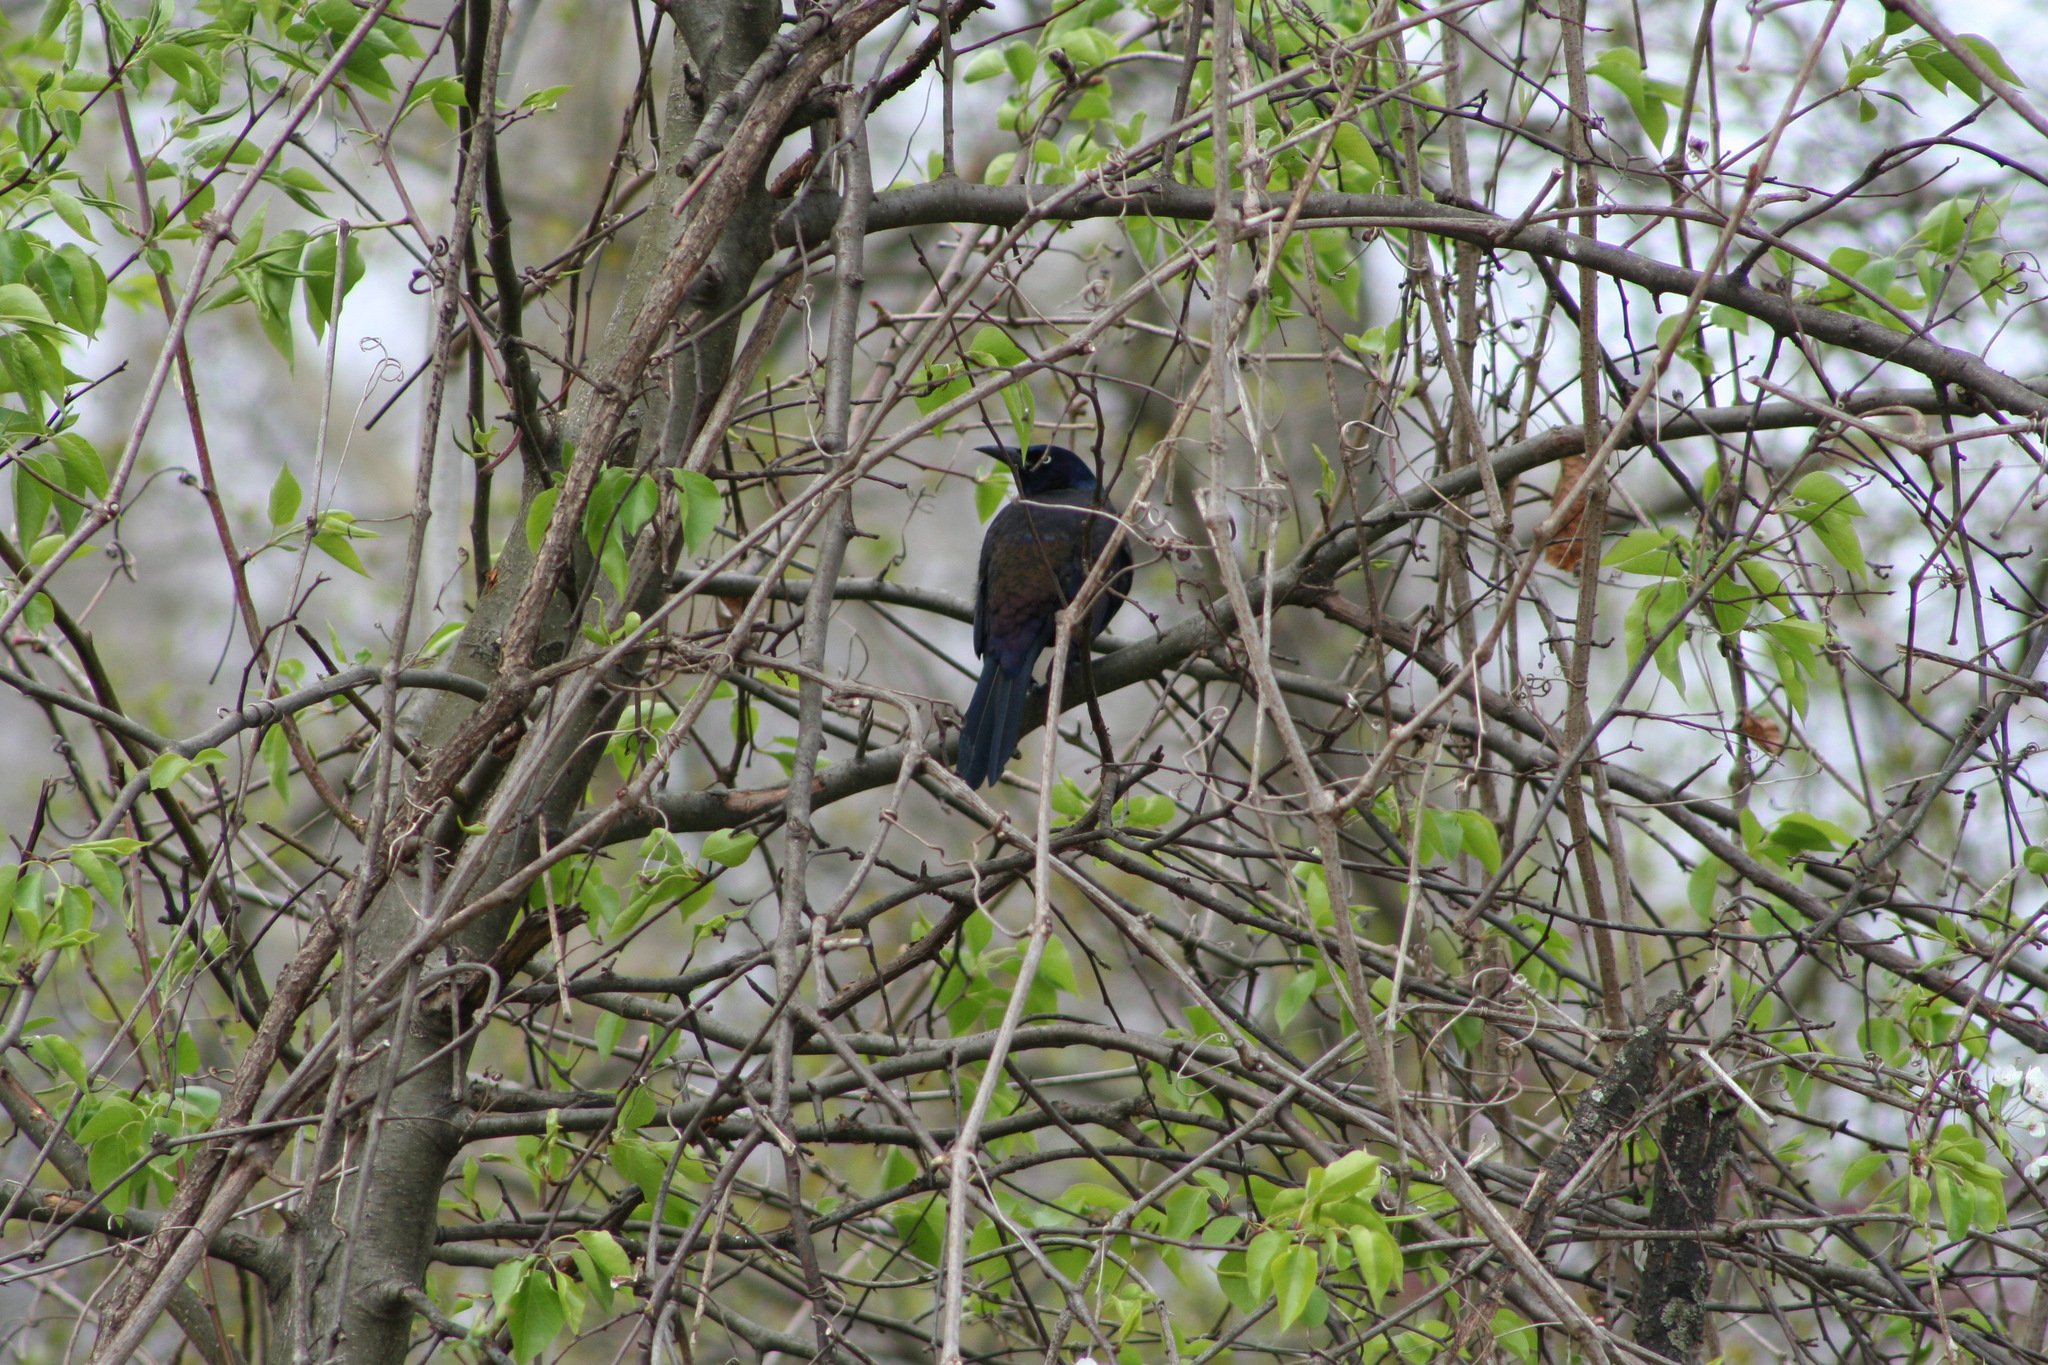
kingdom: Animalia
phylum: Chordata
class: Aves
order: Passeriformes
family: Icteridae
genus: Quiscalus
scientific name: Quiscalus quiscula
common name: Common grackle
